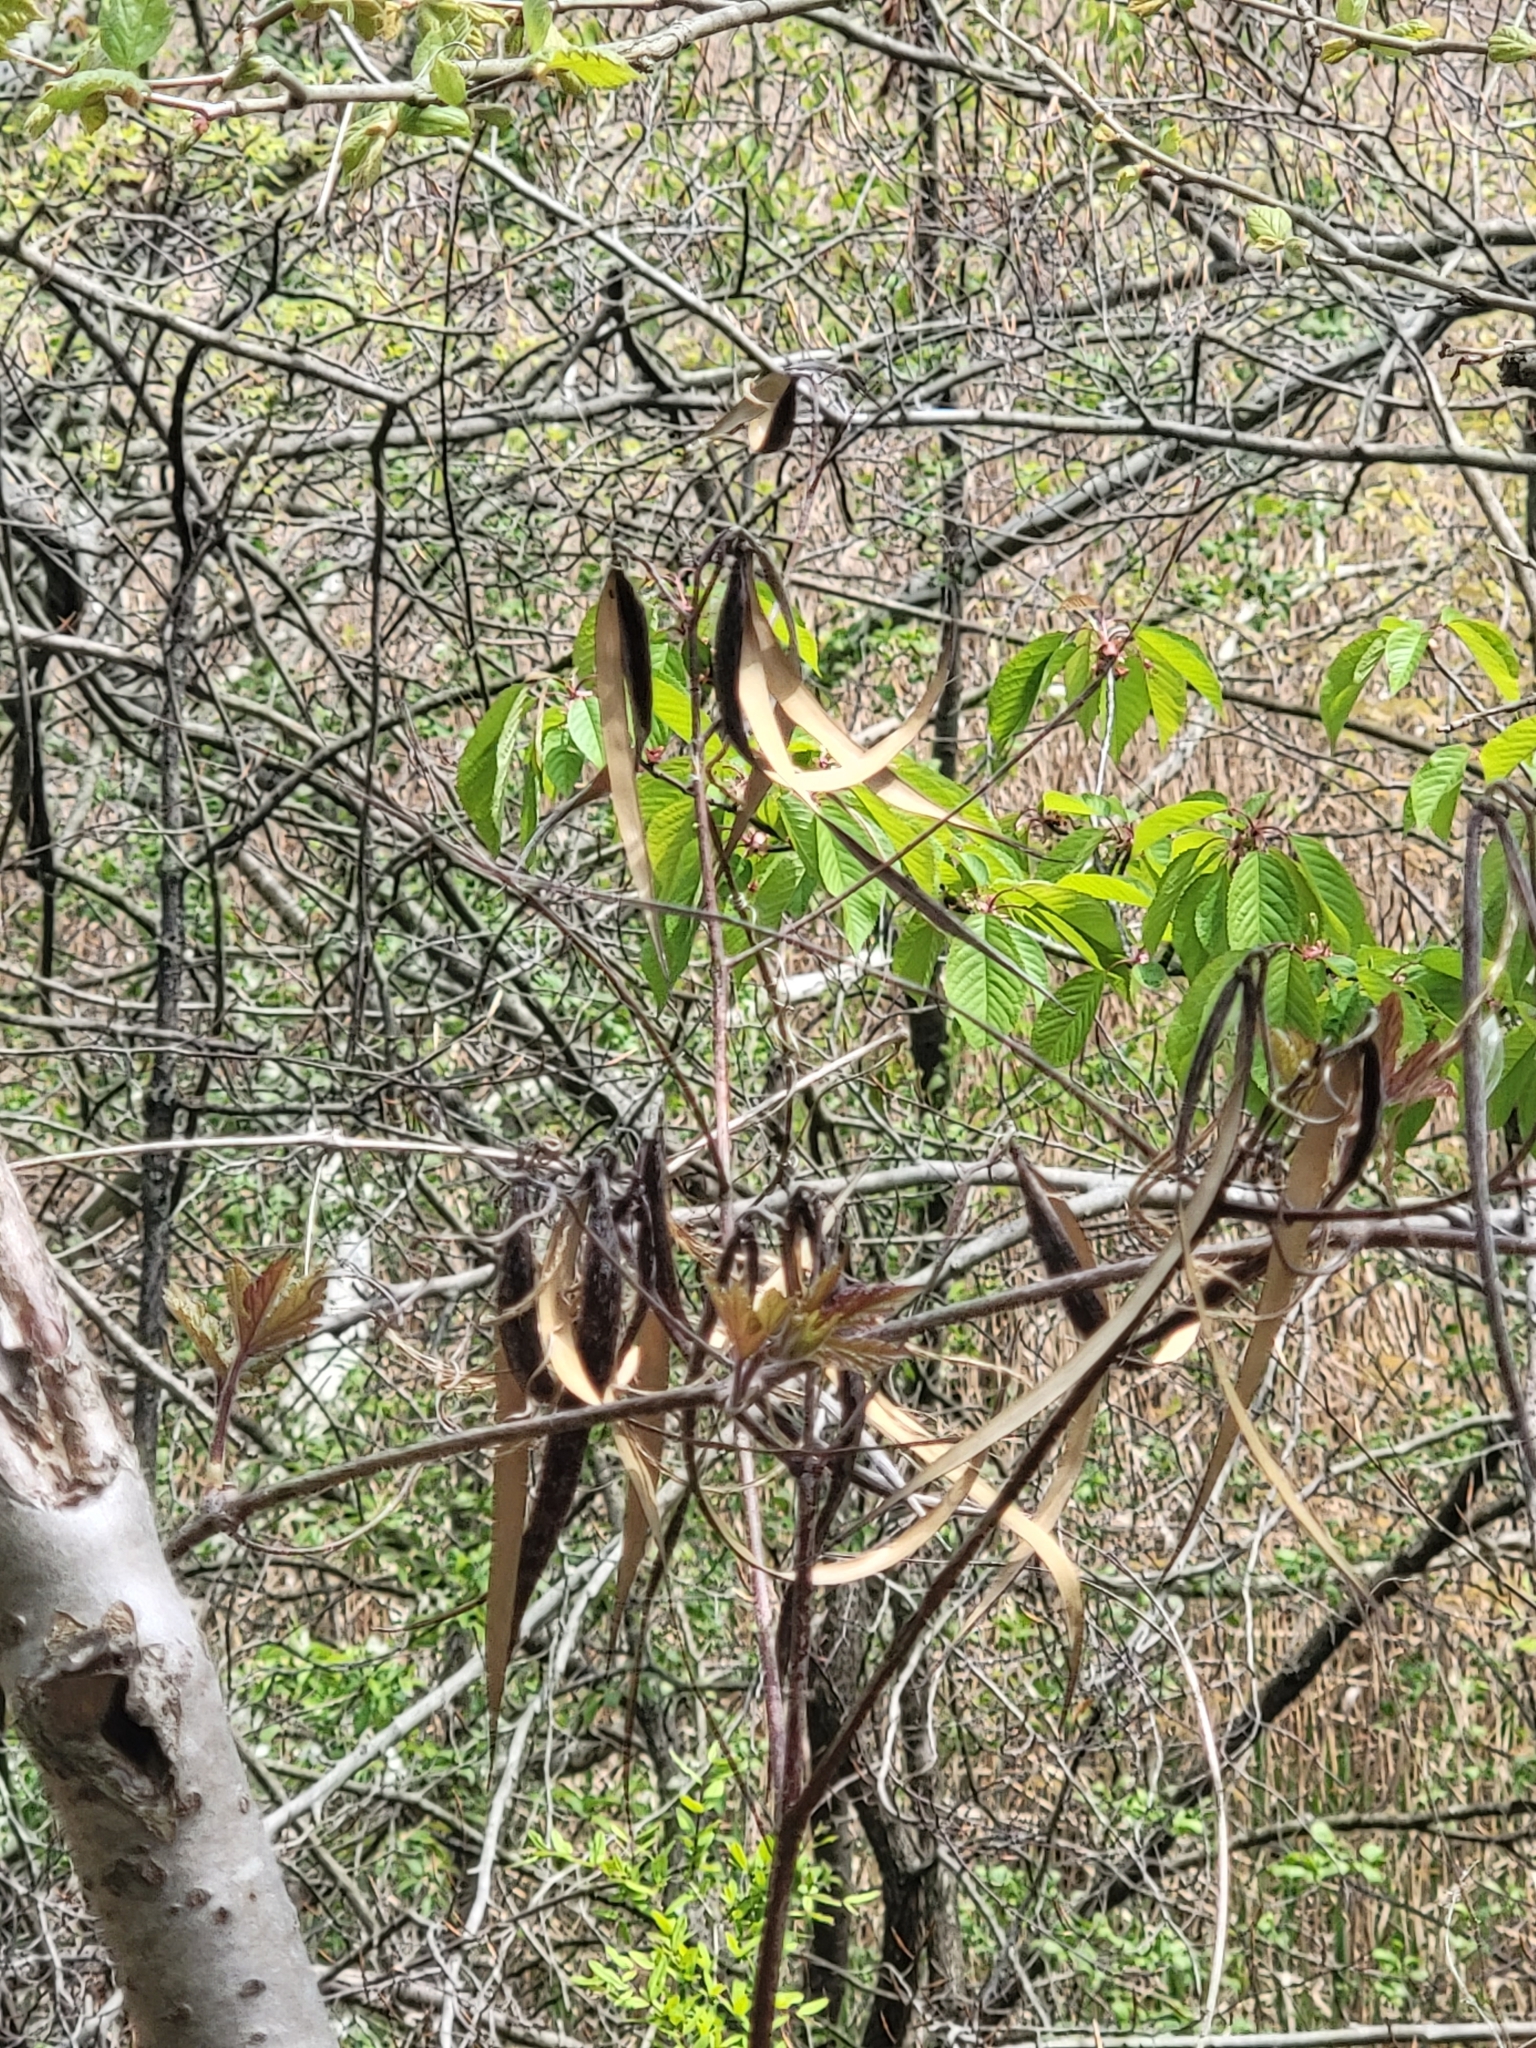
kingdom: Plantae
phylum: Tracheophyta
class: Magnoliopsida
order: Gentianales
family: Apocynaceae
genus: Apocynum
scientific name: Apocynum cannabinum
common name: Hemp dogbane
